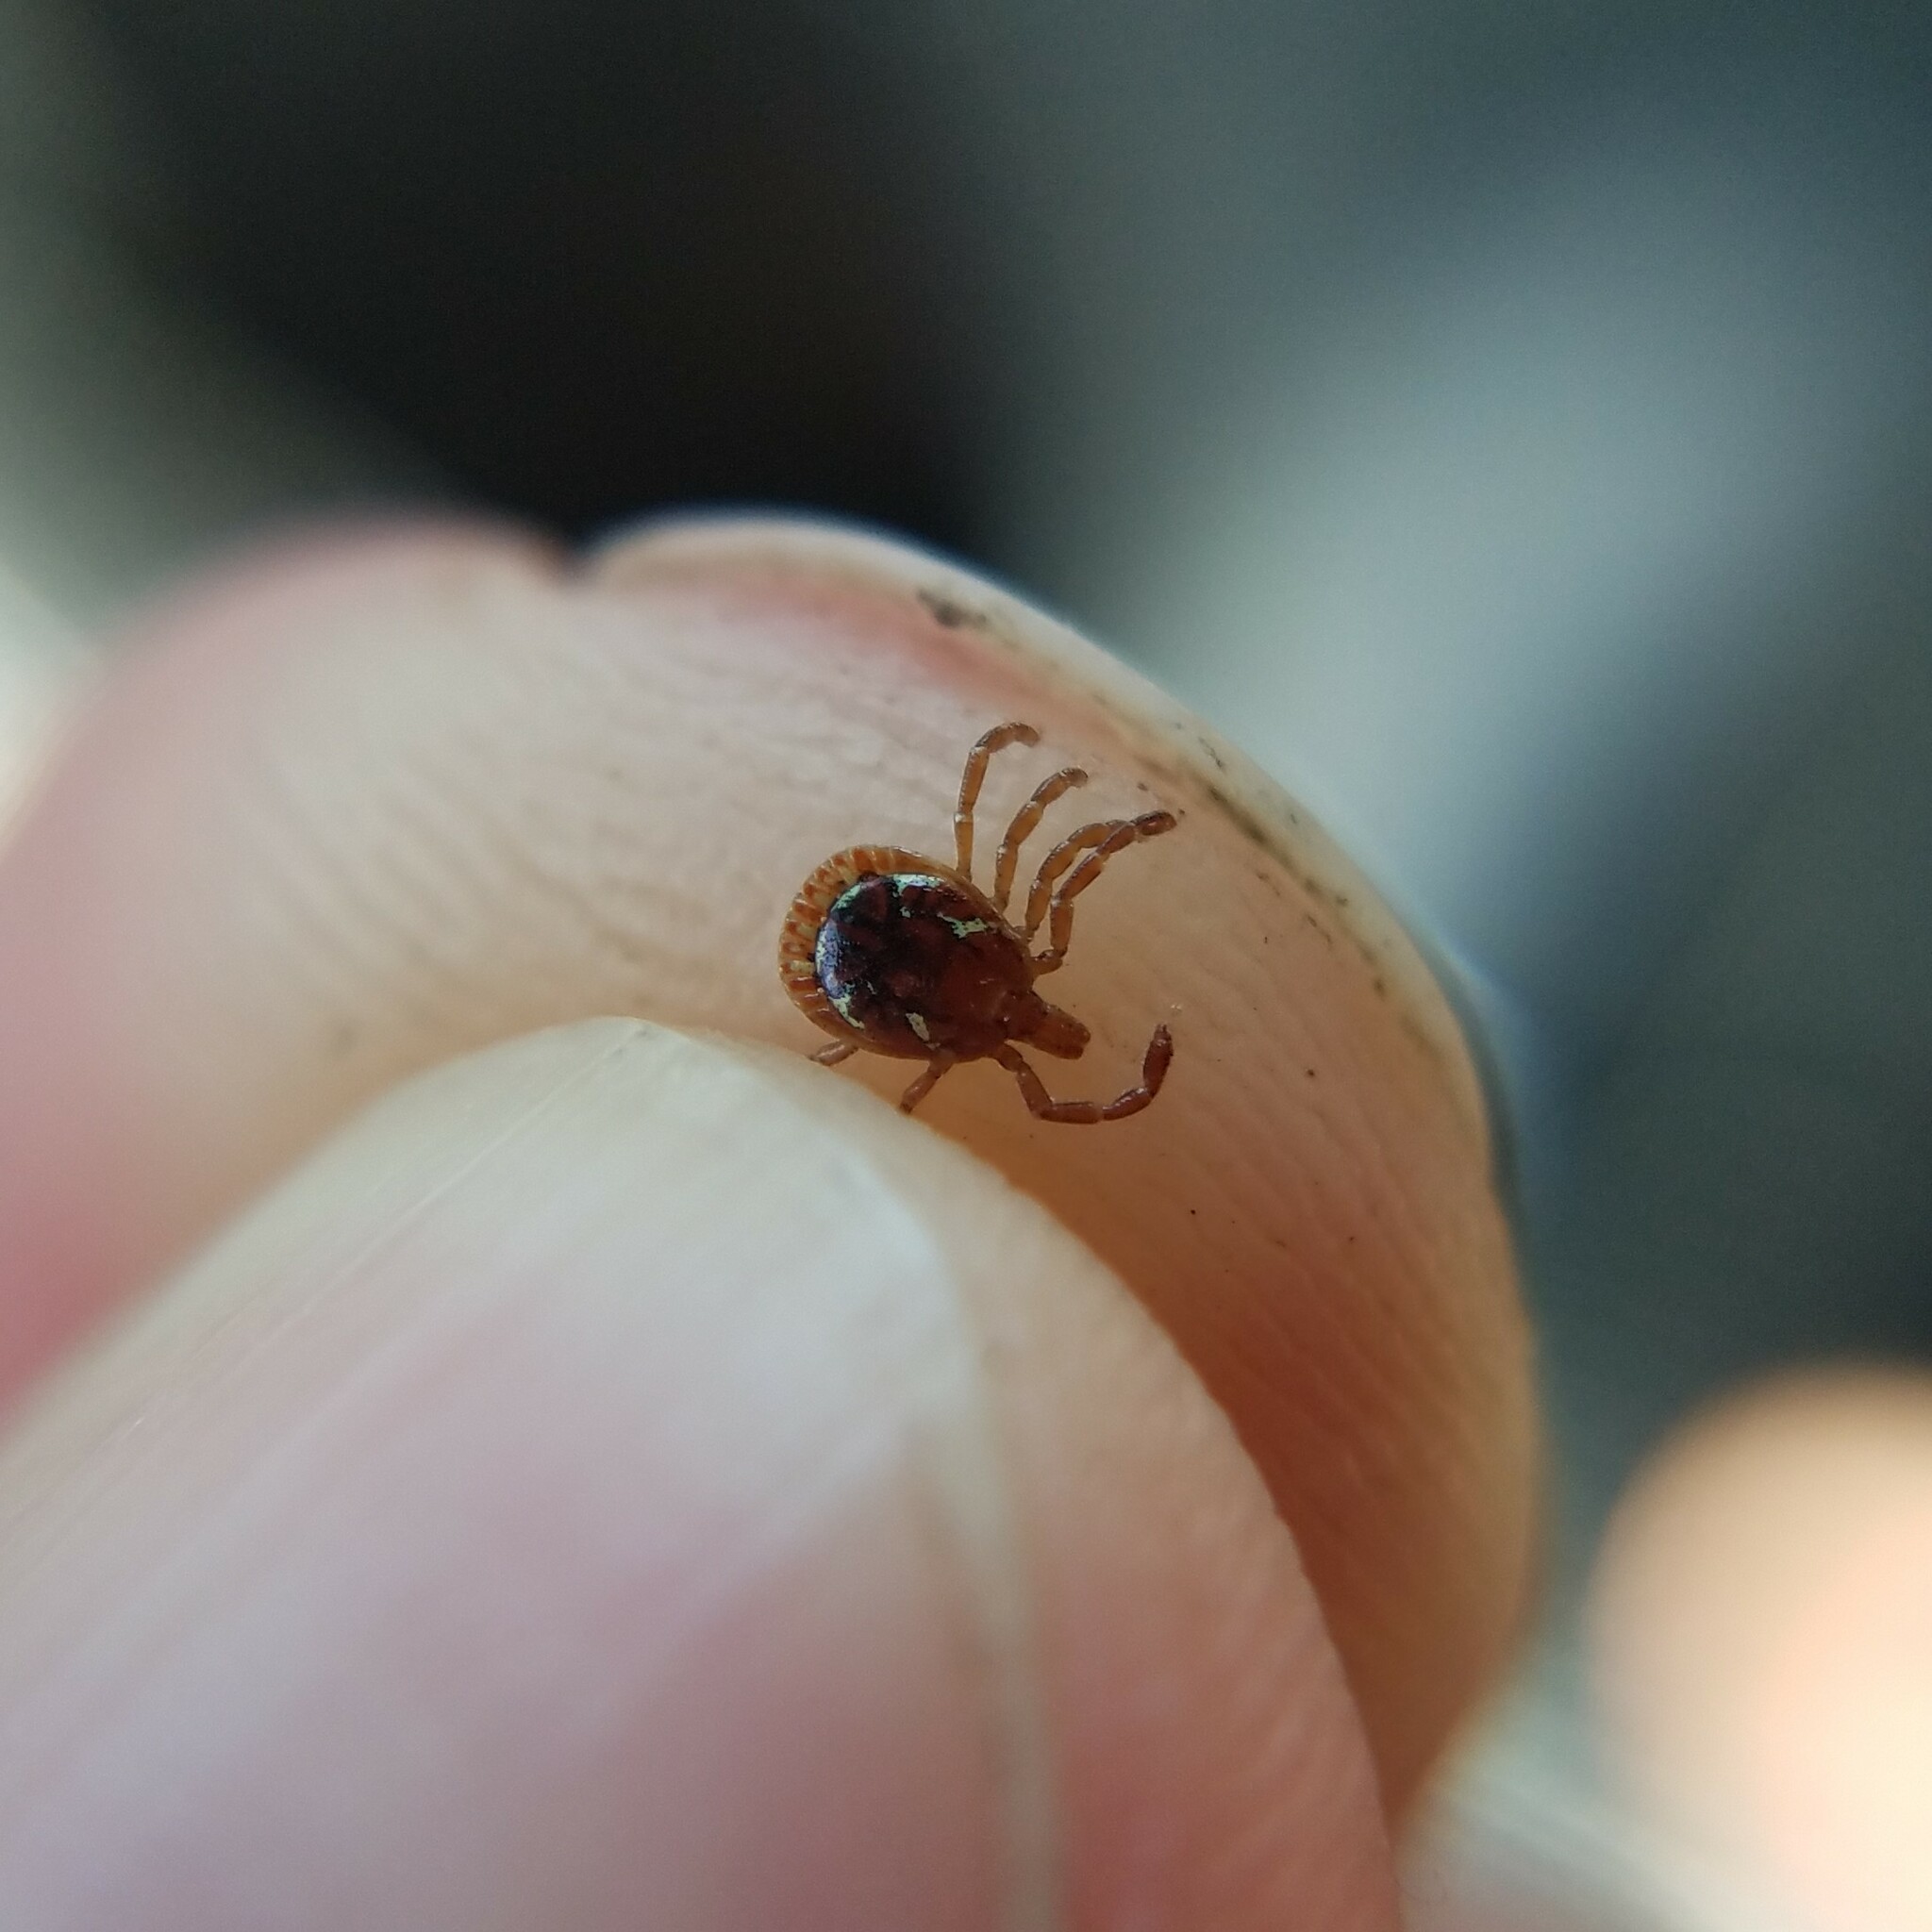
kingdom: Animalia
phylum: Arthropoda
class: Arachnida
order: Ixodida
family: Ixodidae
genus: Amblyomma
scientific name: Amblyomma americanum
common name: Lone star tick
